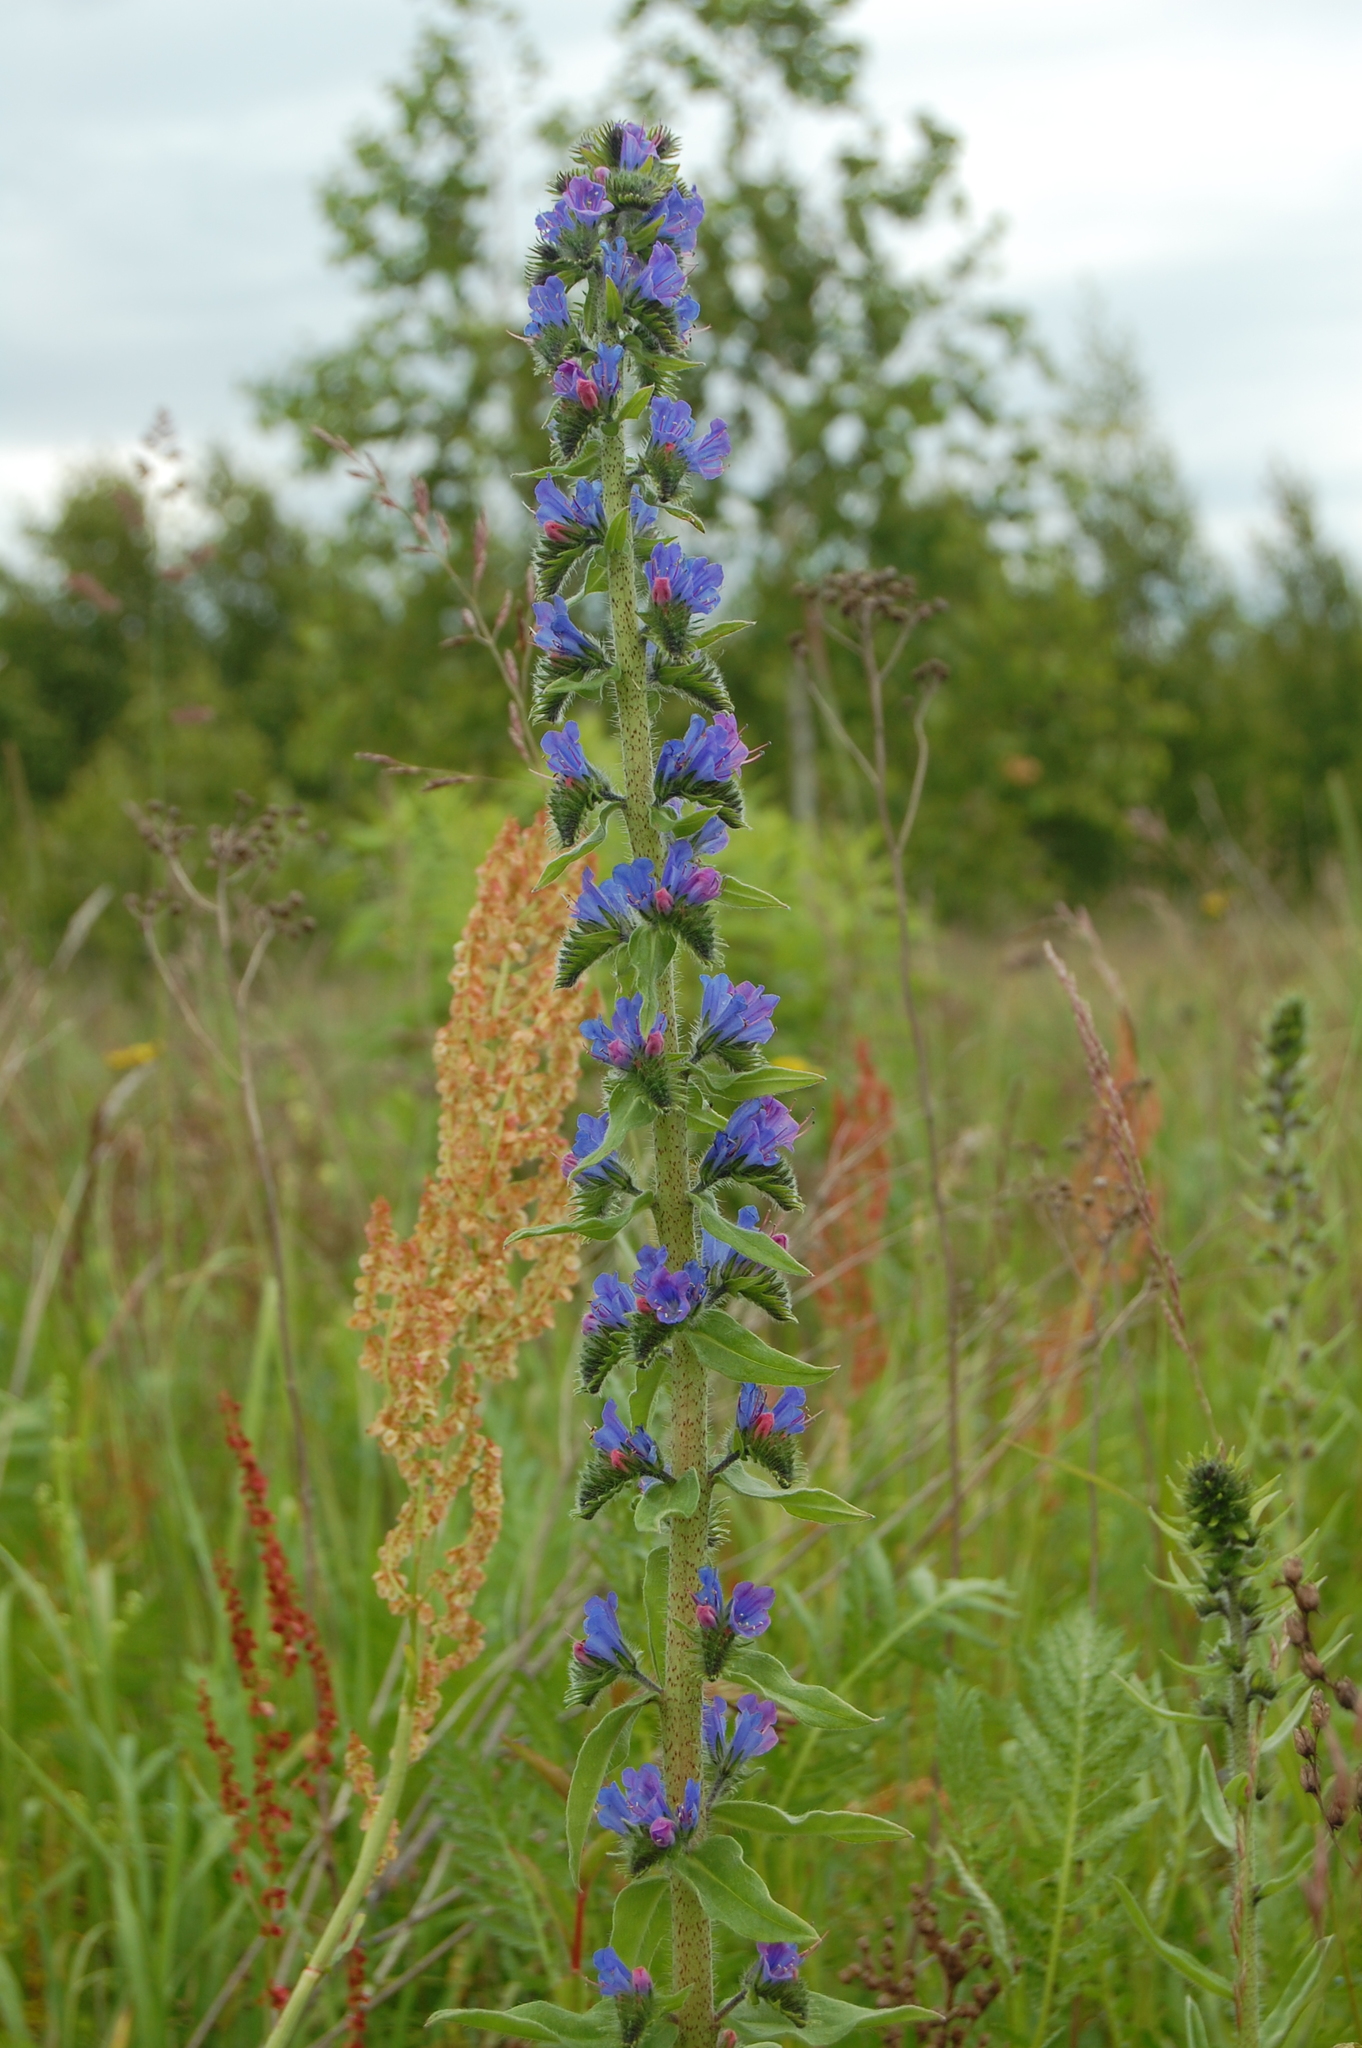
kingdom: Plantae
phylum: Tracheophyta
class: Magnoliopsida
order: Boraginales
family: Boraginaceae
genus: Echium
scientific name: Echium vulgare
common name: Common viper's bugloss
